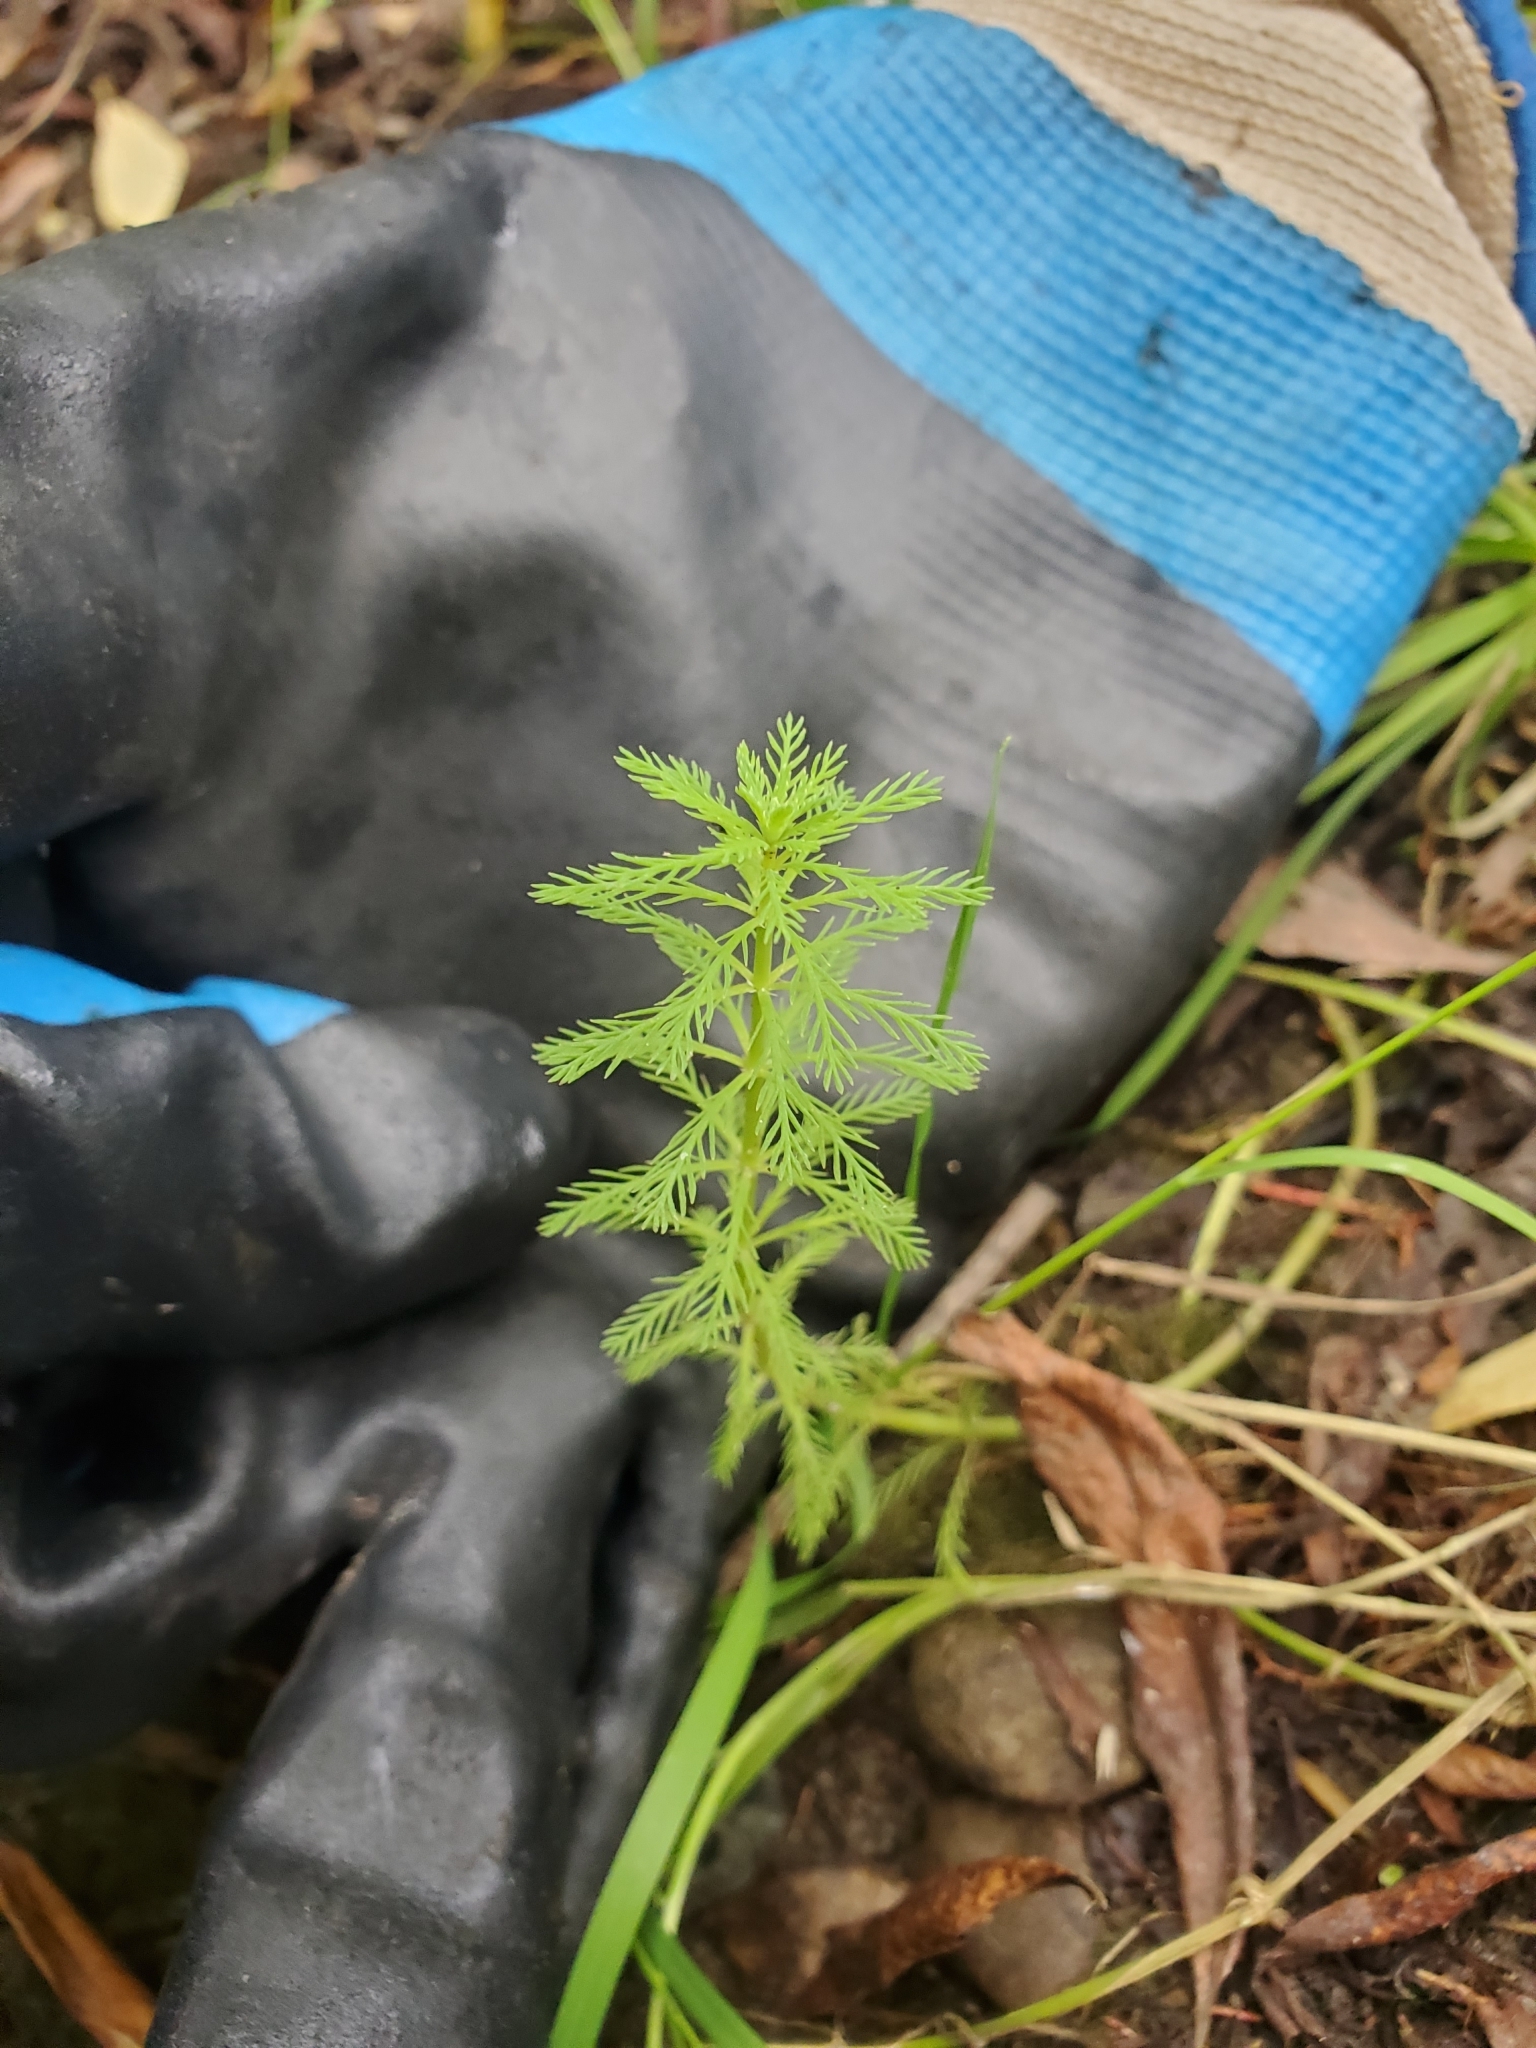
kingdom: Plantae
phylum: Tracheophyta
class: Magnoliopsida
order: Saxifragales
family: Haloragaceae
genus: Myriophyllum
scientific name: Myriophyllum aquaticum
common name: Parrot's feather
